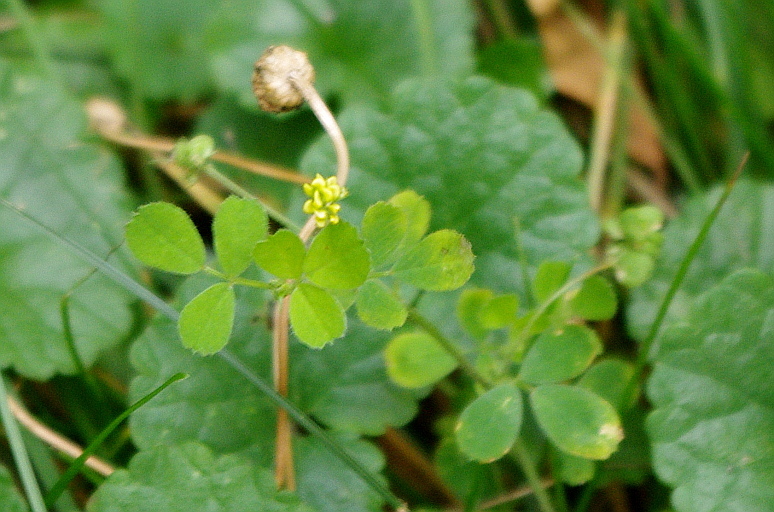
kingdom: Plantae
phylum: Tracheophyta
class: Magnoliopsida
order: Fabales
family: Fabaceae
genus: Medicago
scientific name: Medicago lupulina
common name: Black medick
